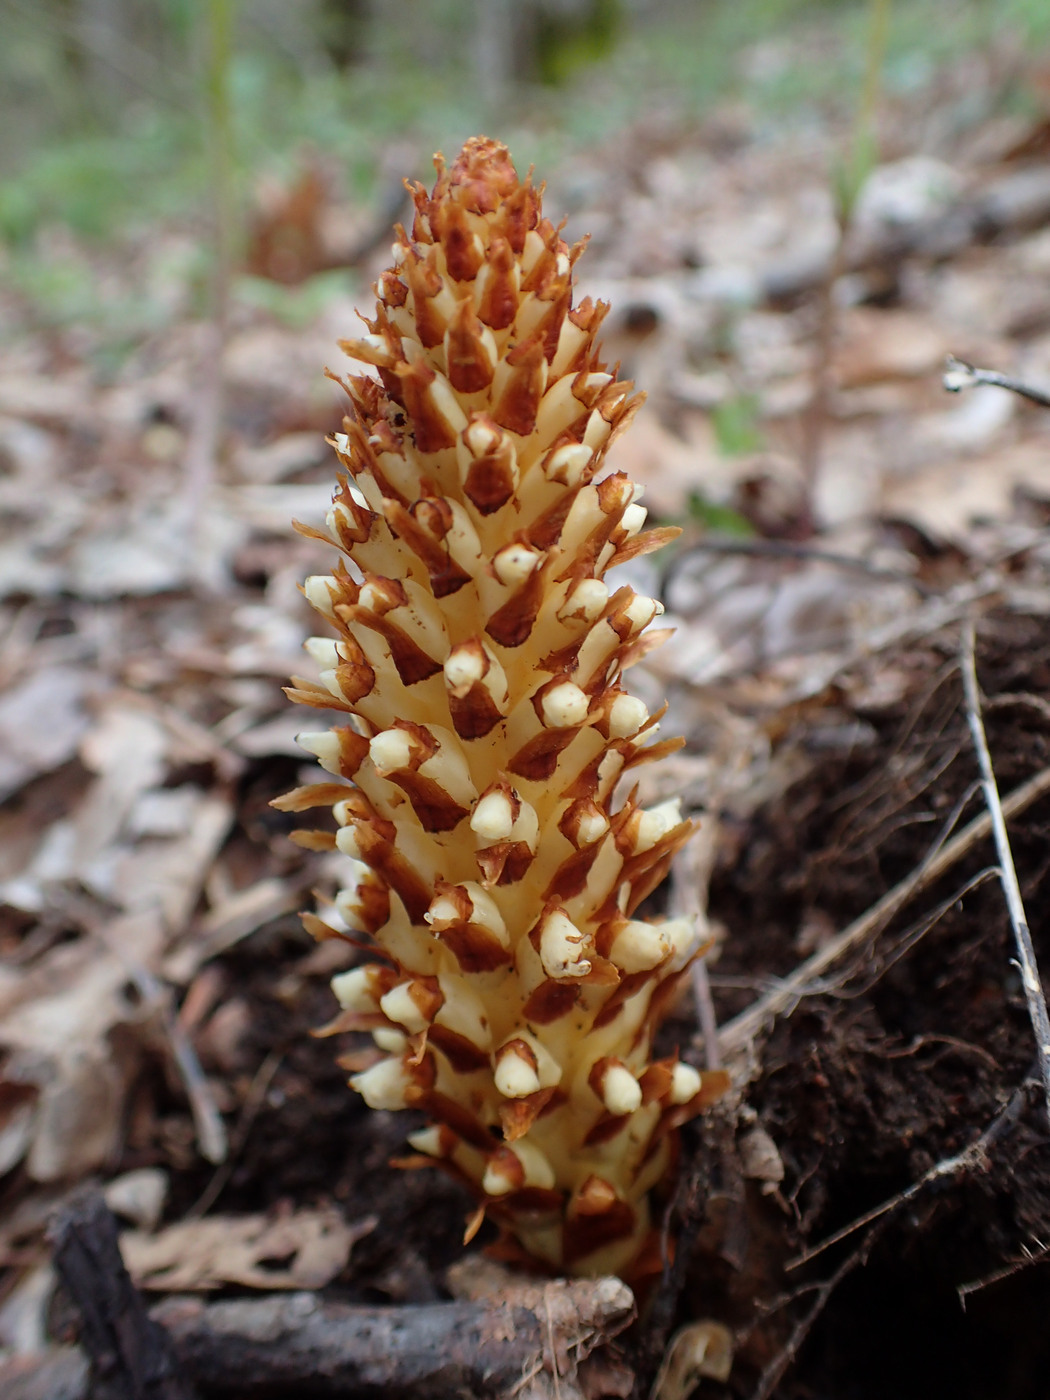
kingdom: Plantae
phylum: Tracheophyta
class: Magnoliopsida
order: Lamiales
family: Orobanchaceae
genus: Conopholis
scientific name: Conopholis americana
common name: American cancer-root
